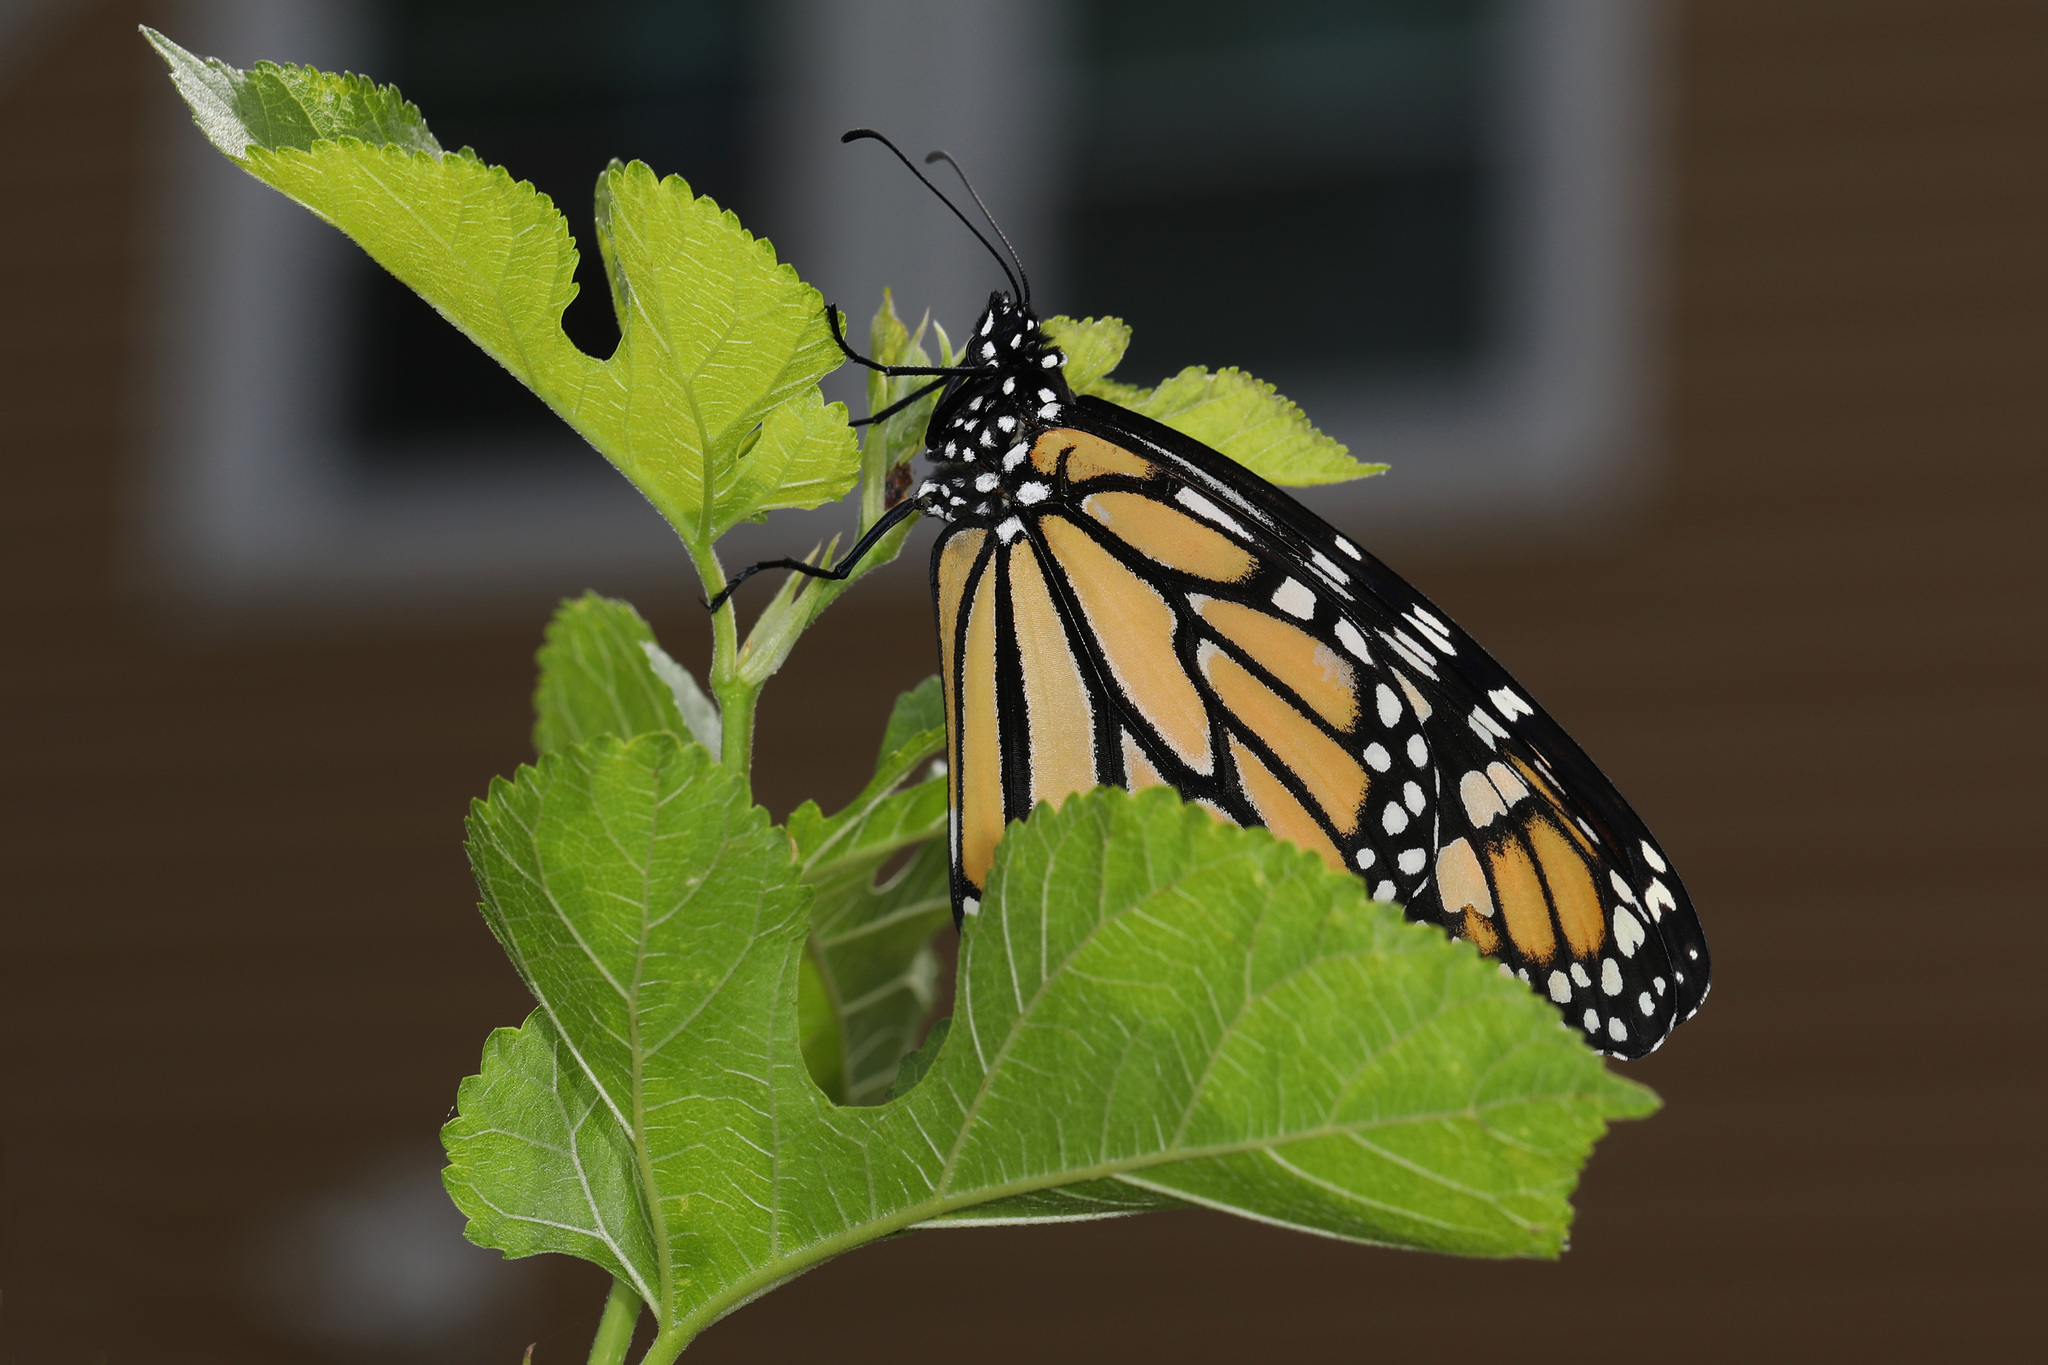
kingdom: Animalia
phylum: Arthropoda
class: Insecta
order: Lepidoptera
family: Nymphalidae
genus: Danaus
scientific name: Danaus plexippus
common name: Monarch
